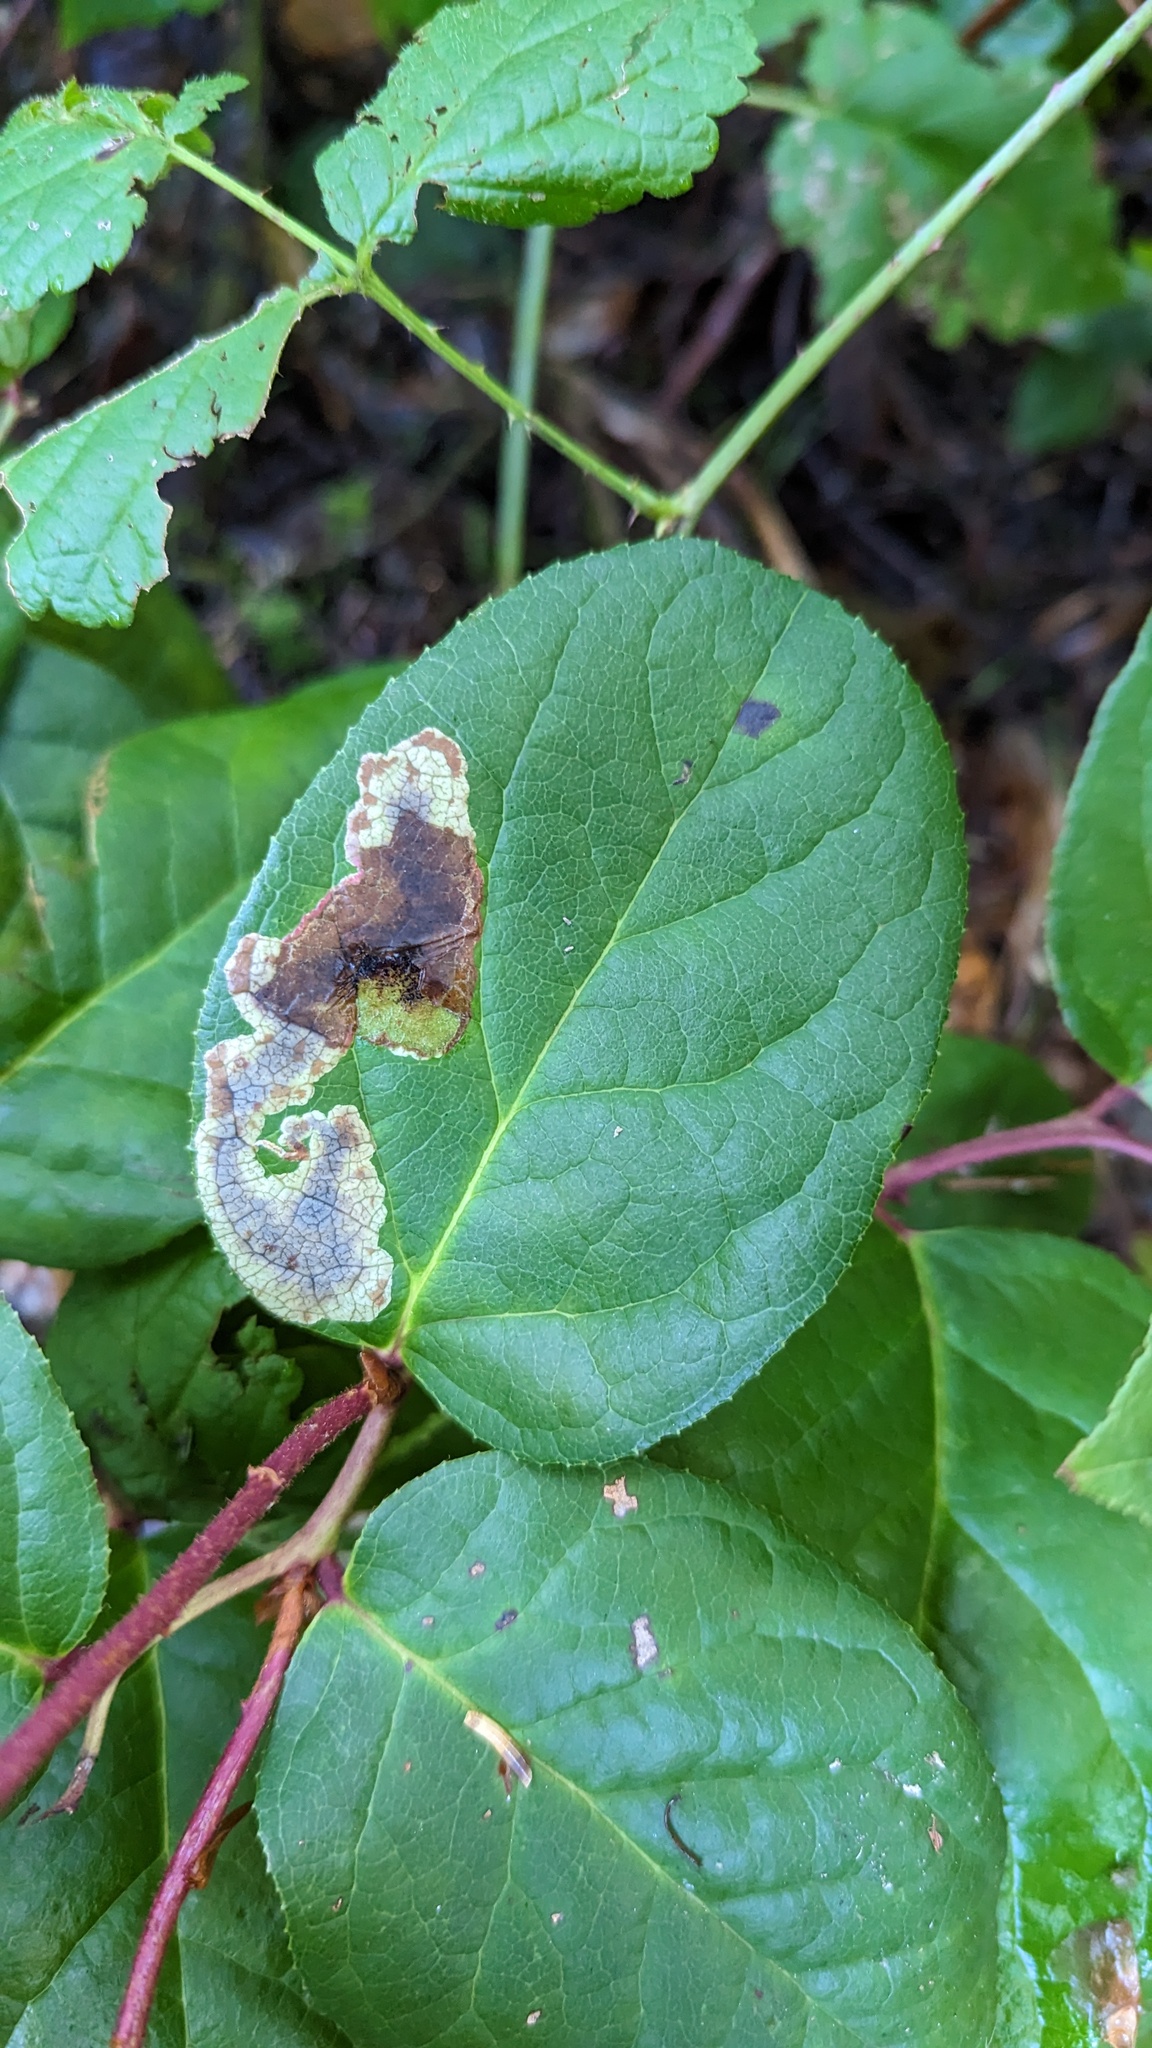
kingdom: Animalia
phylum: Arthropoda
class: Insecta
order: Lepidoptera
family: Gracillariidae
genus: Cameraria
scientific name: Cameraria gaultheriella
